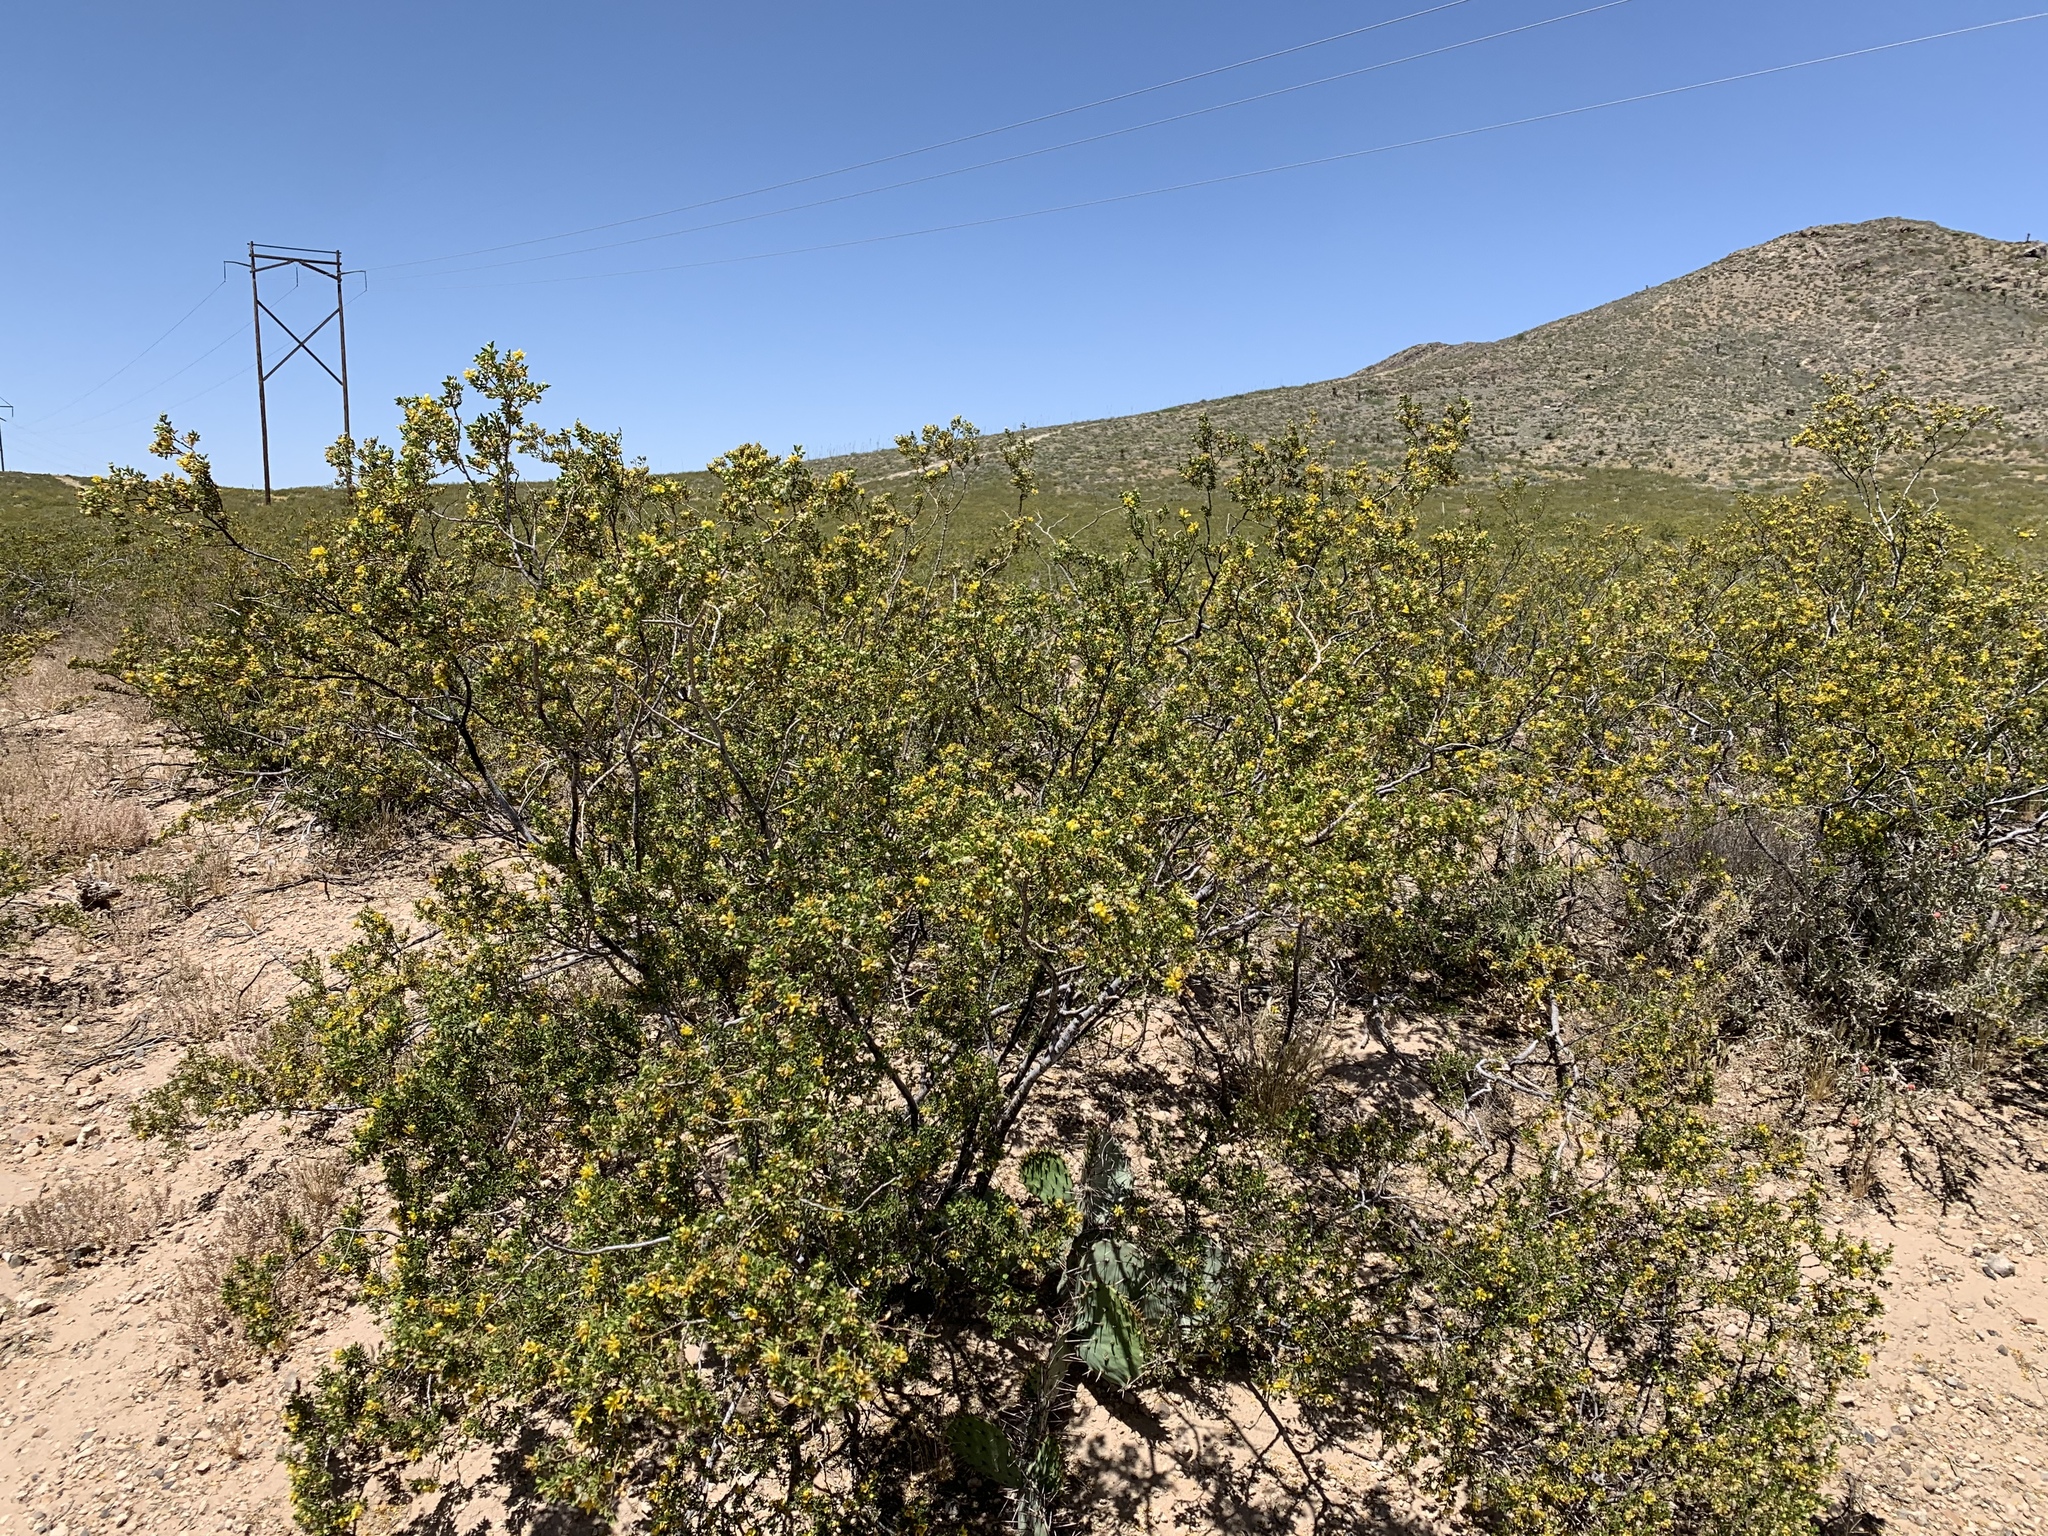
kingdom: Plantae
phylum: Tracheophyta
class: Magnoliopsida
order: Zygophyllales
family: Zygophyllaceae
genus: Larrea
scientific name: Larrea tridentata
